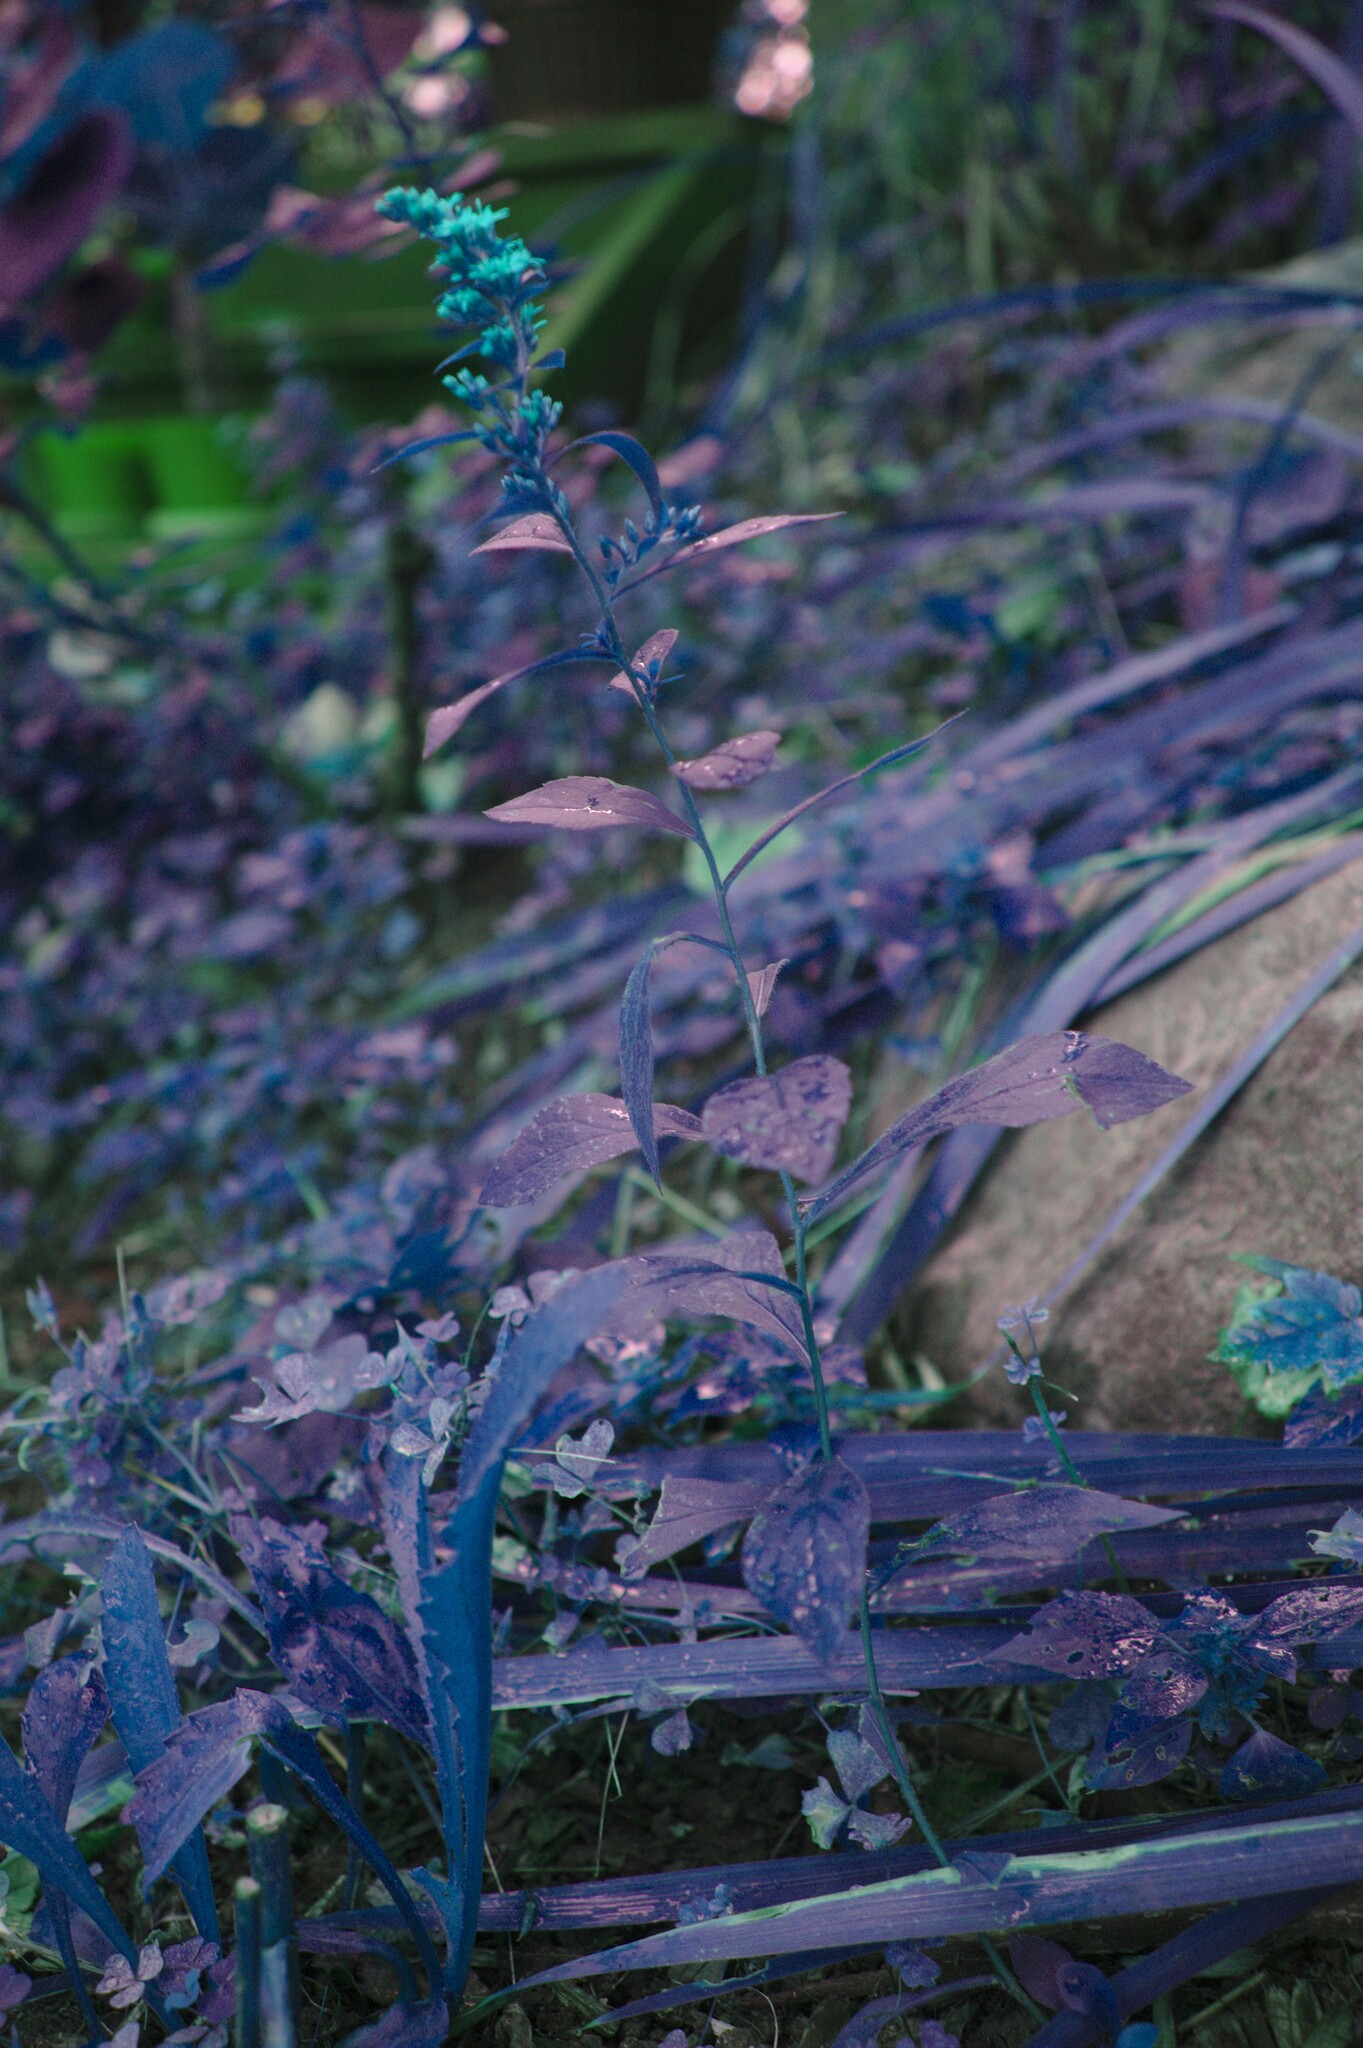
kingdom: Plantae
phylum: Tracheophyta
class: Magnoliopsida
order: Asterales
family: Asteraceae
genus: Solidago
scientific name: Solidago rugosa
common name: Rough-stemmed goldenrod
